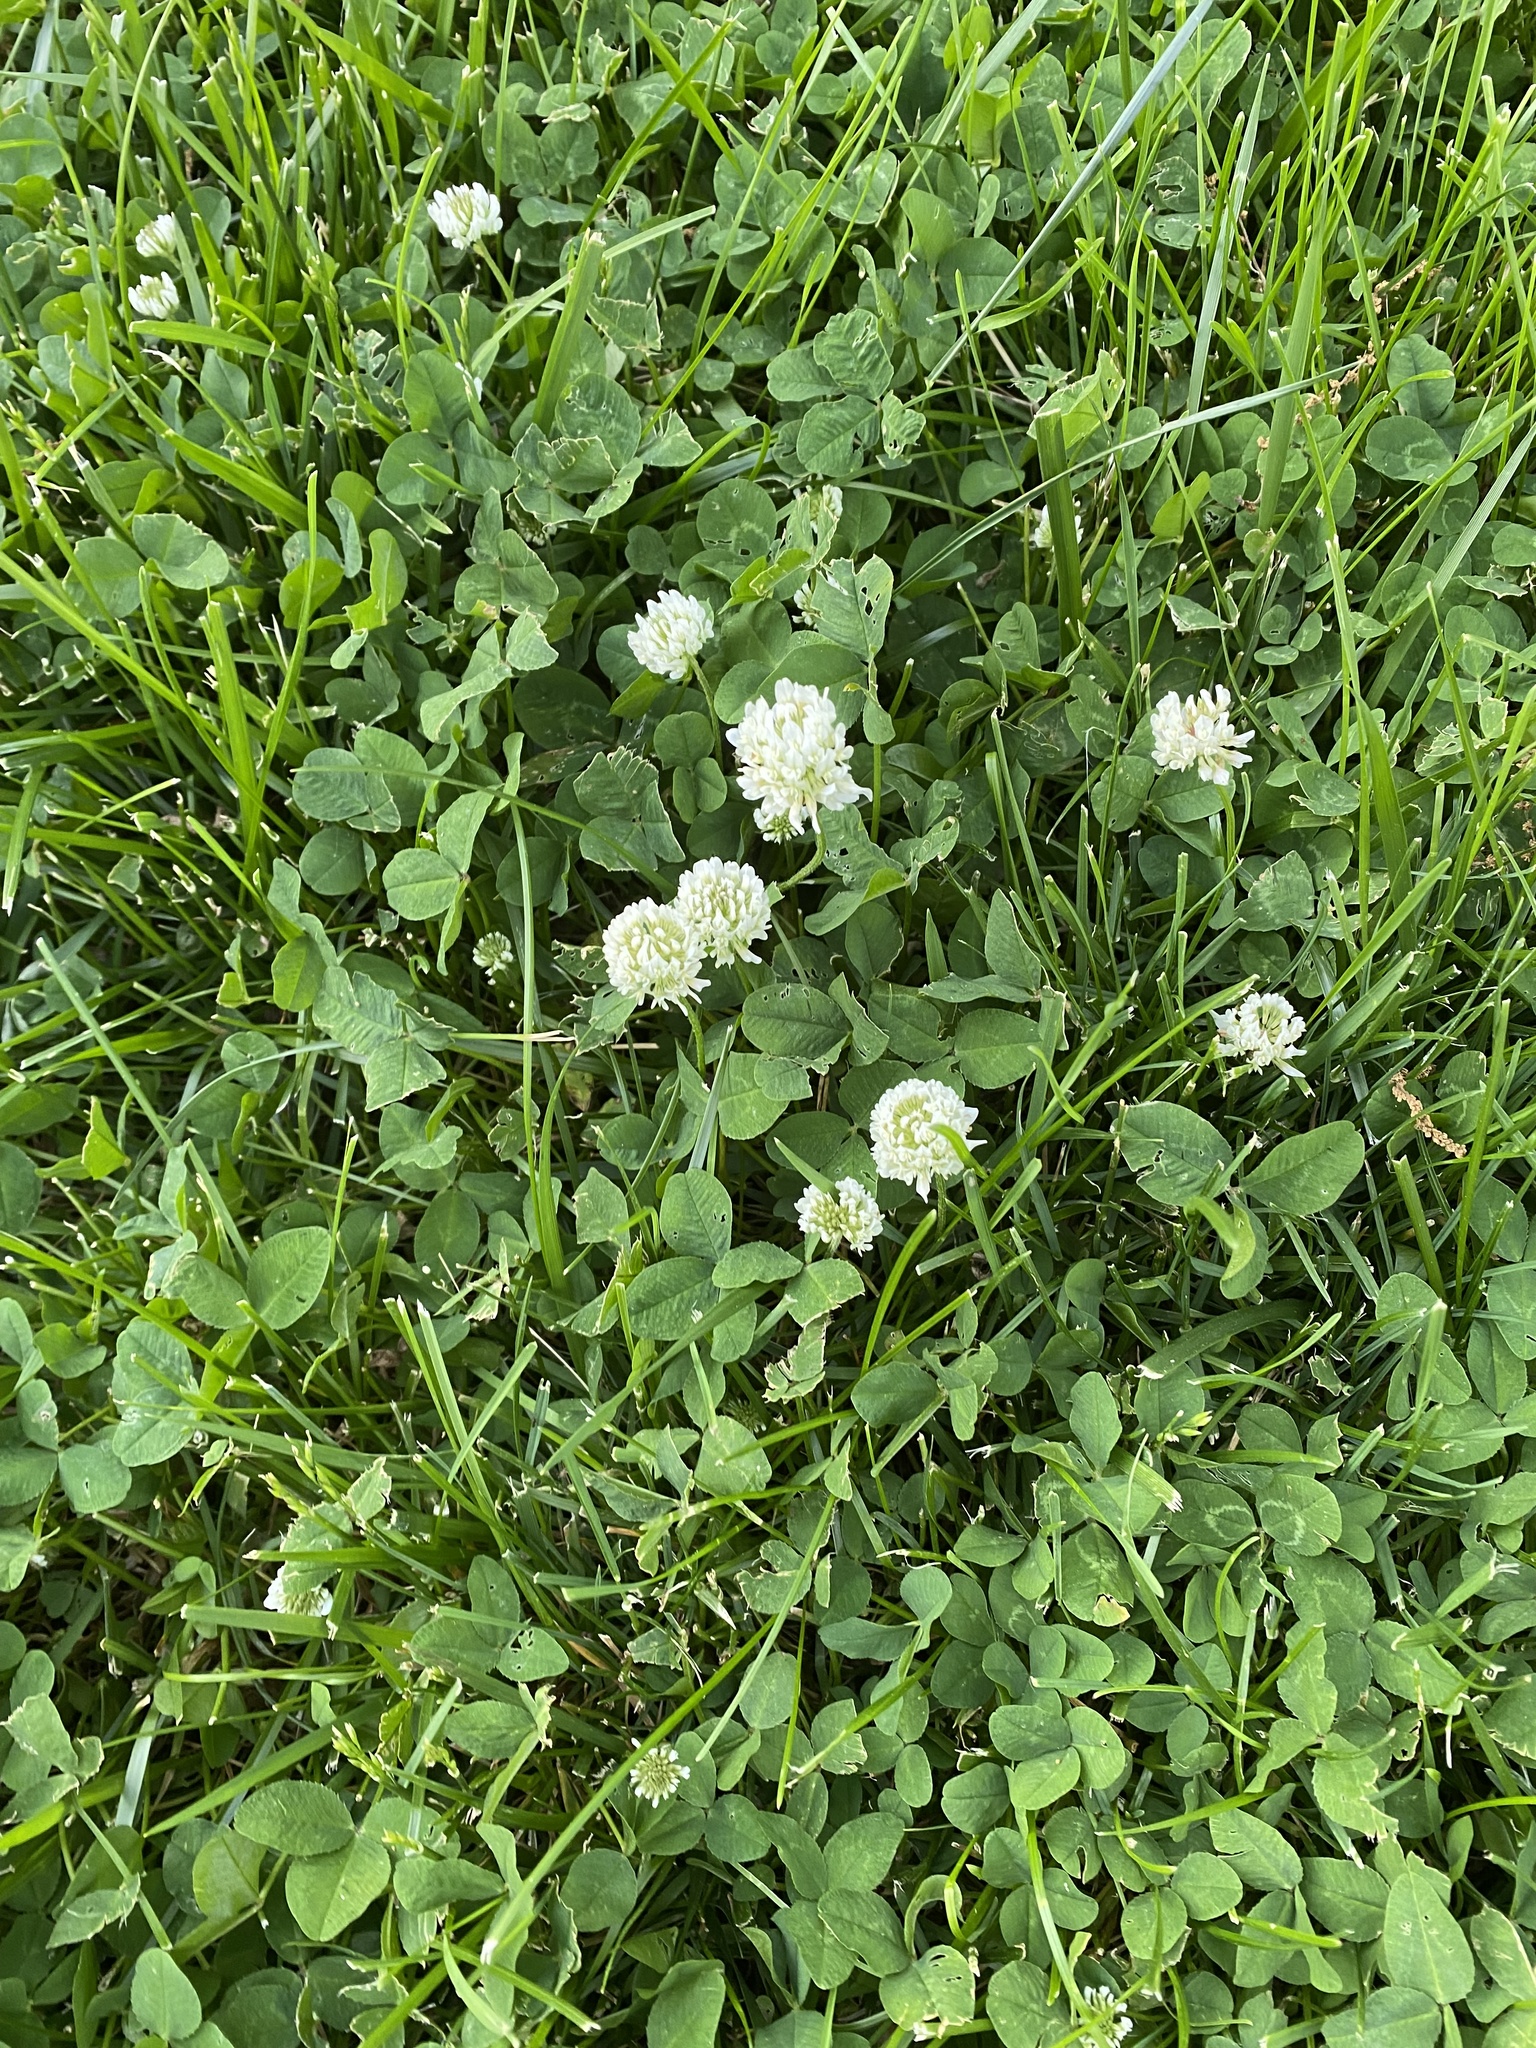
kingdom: Plantae
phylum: Tracheophyta
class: Magnoliopsida
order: Fabales
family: Fabaceae
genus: Trifolium
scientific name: Trifolium repens
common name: White clover
